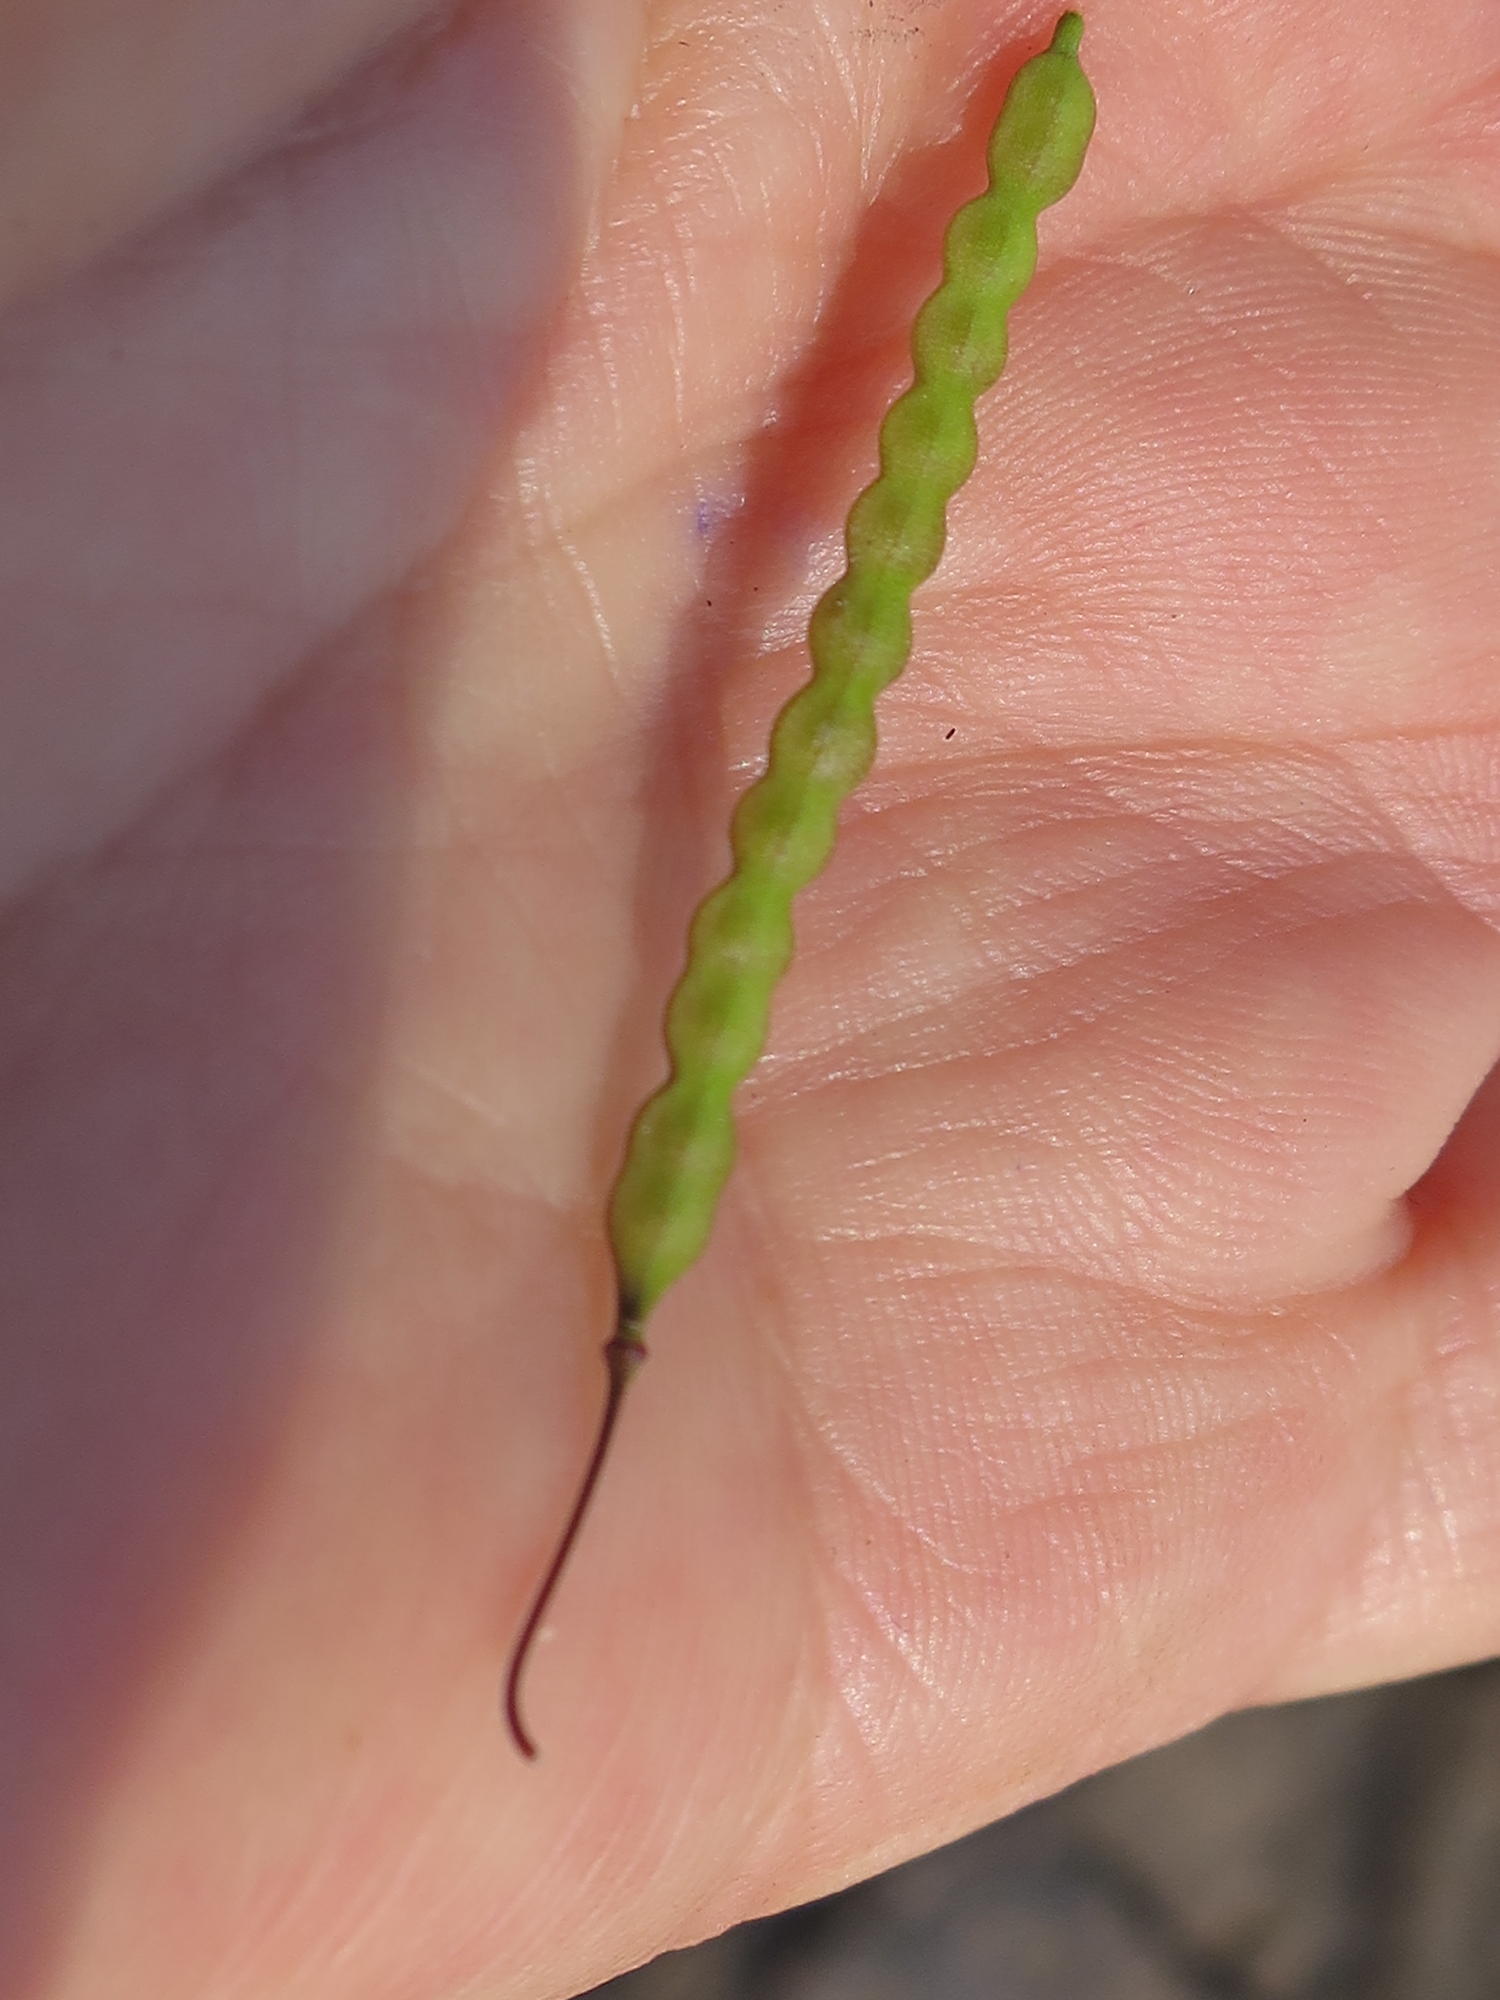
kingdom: Plantae
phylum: Tracheophyta
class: Magnoliopsida
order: Brassicales
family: Brassicaceae
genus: Heliophila
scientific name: Heliophila pendula
